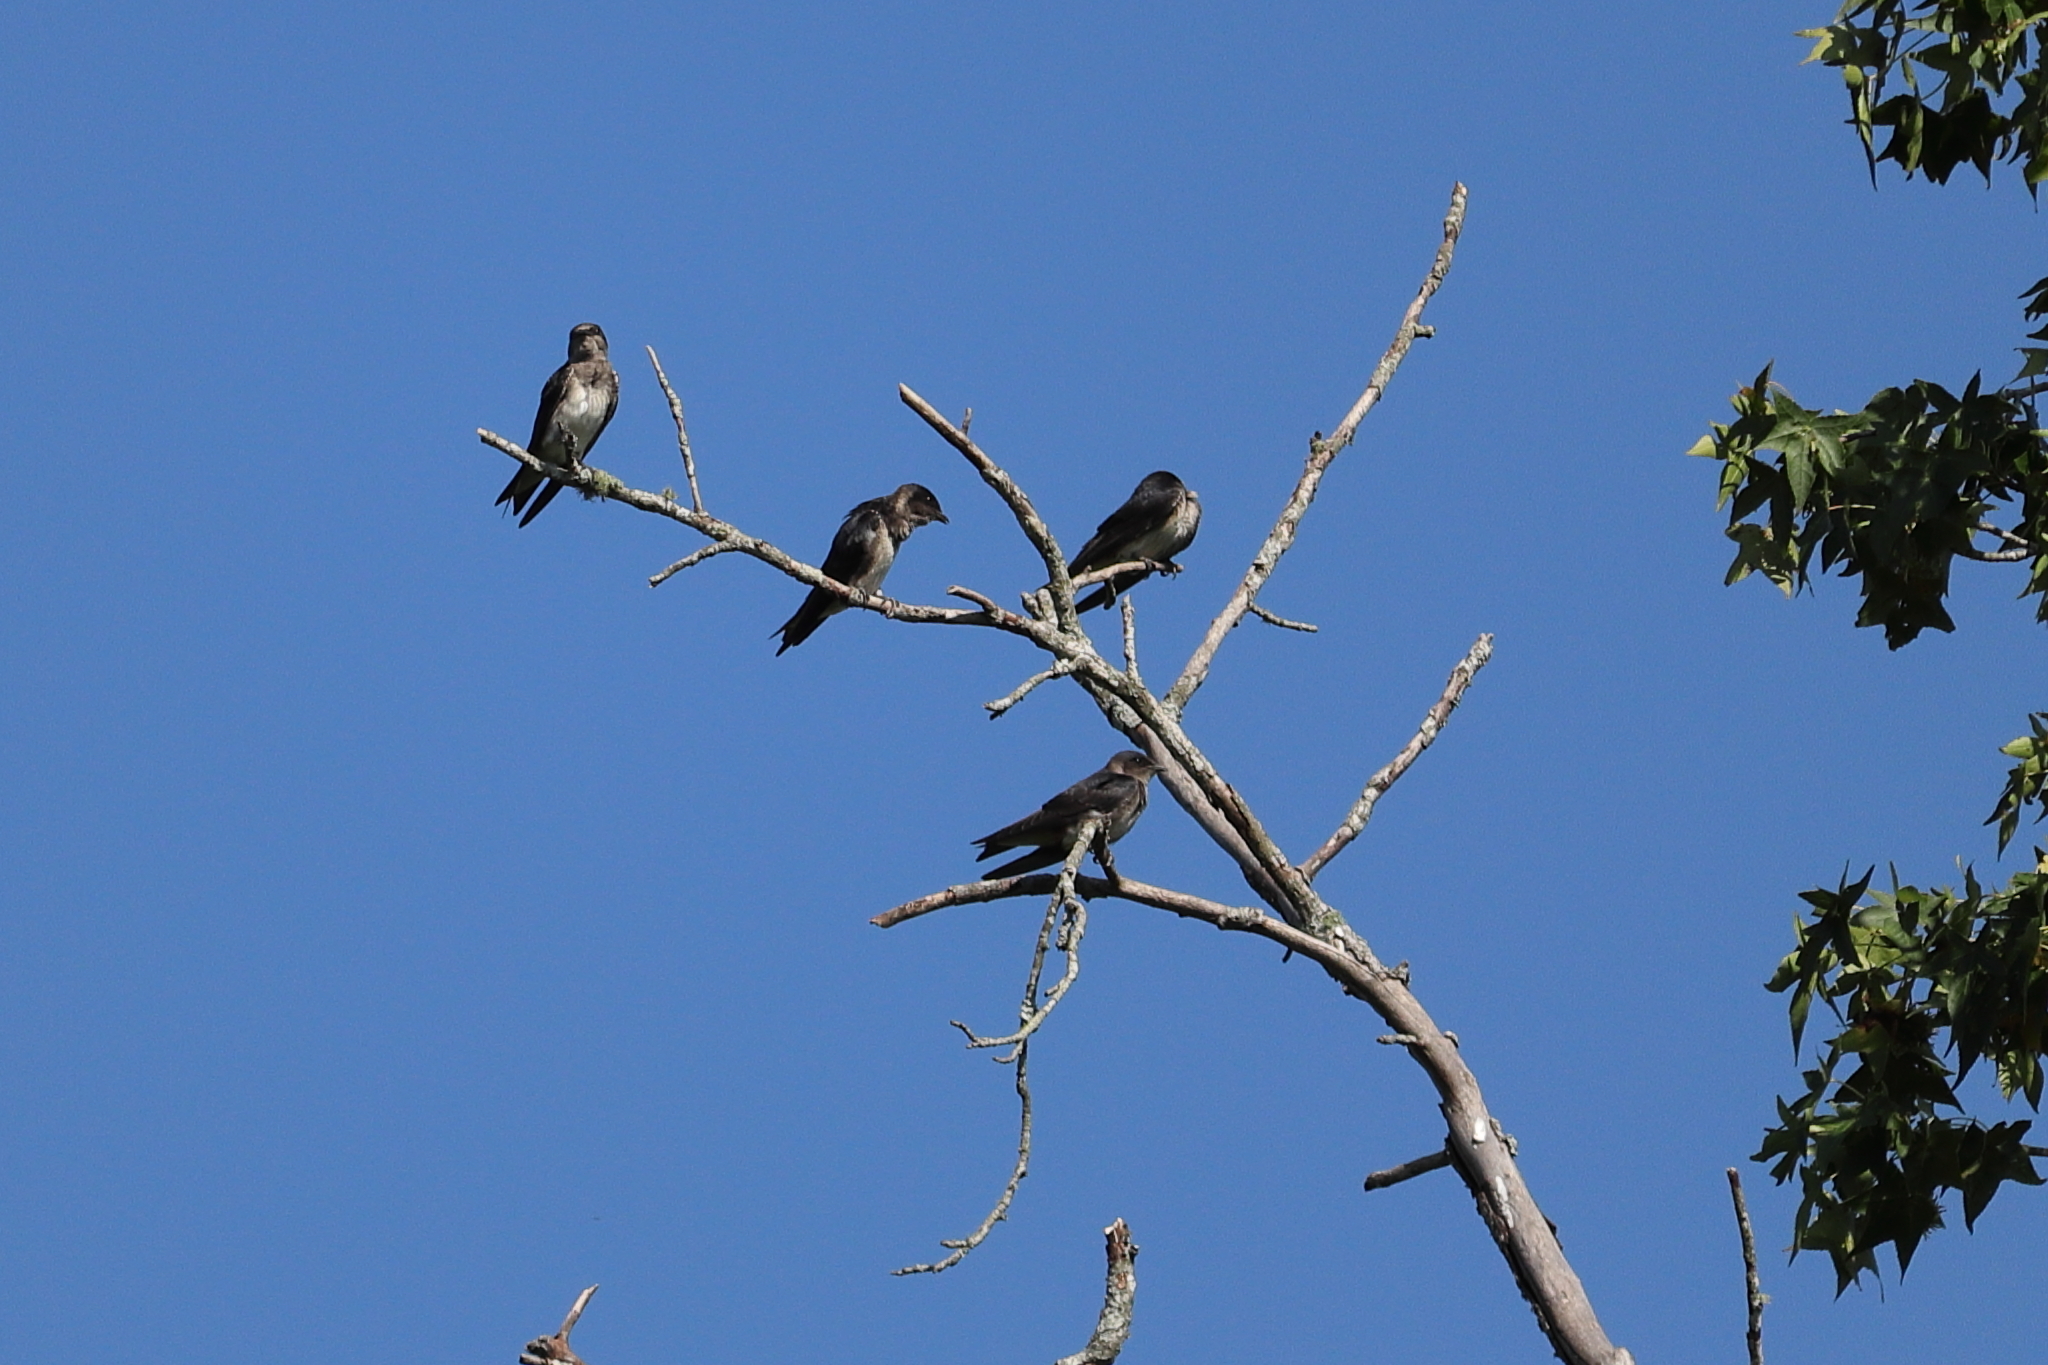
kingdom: Animalia
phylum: Chordata
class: Aves
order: Passeriformes
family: Hirundinidae
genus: Progne
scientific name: Progne subis
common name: Purple martin
